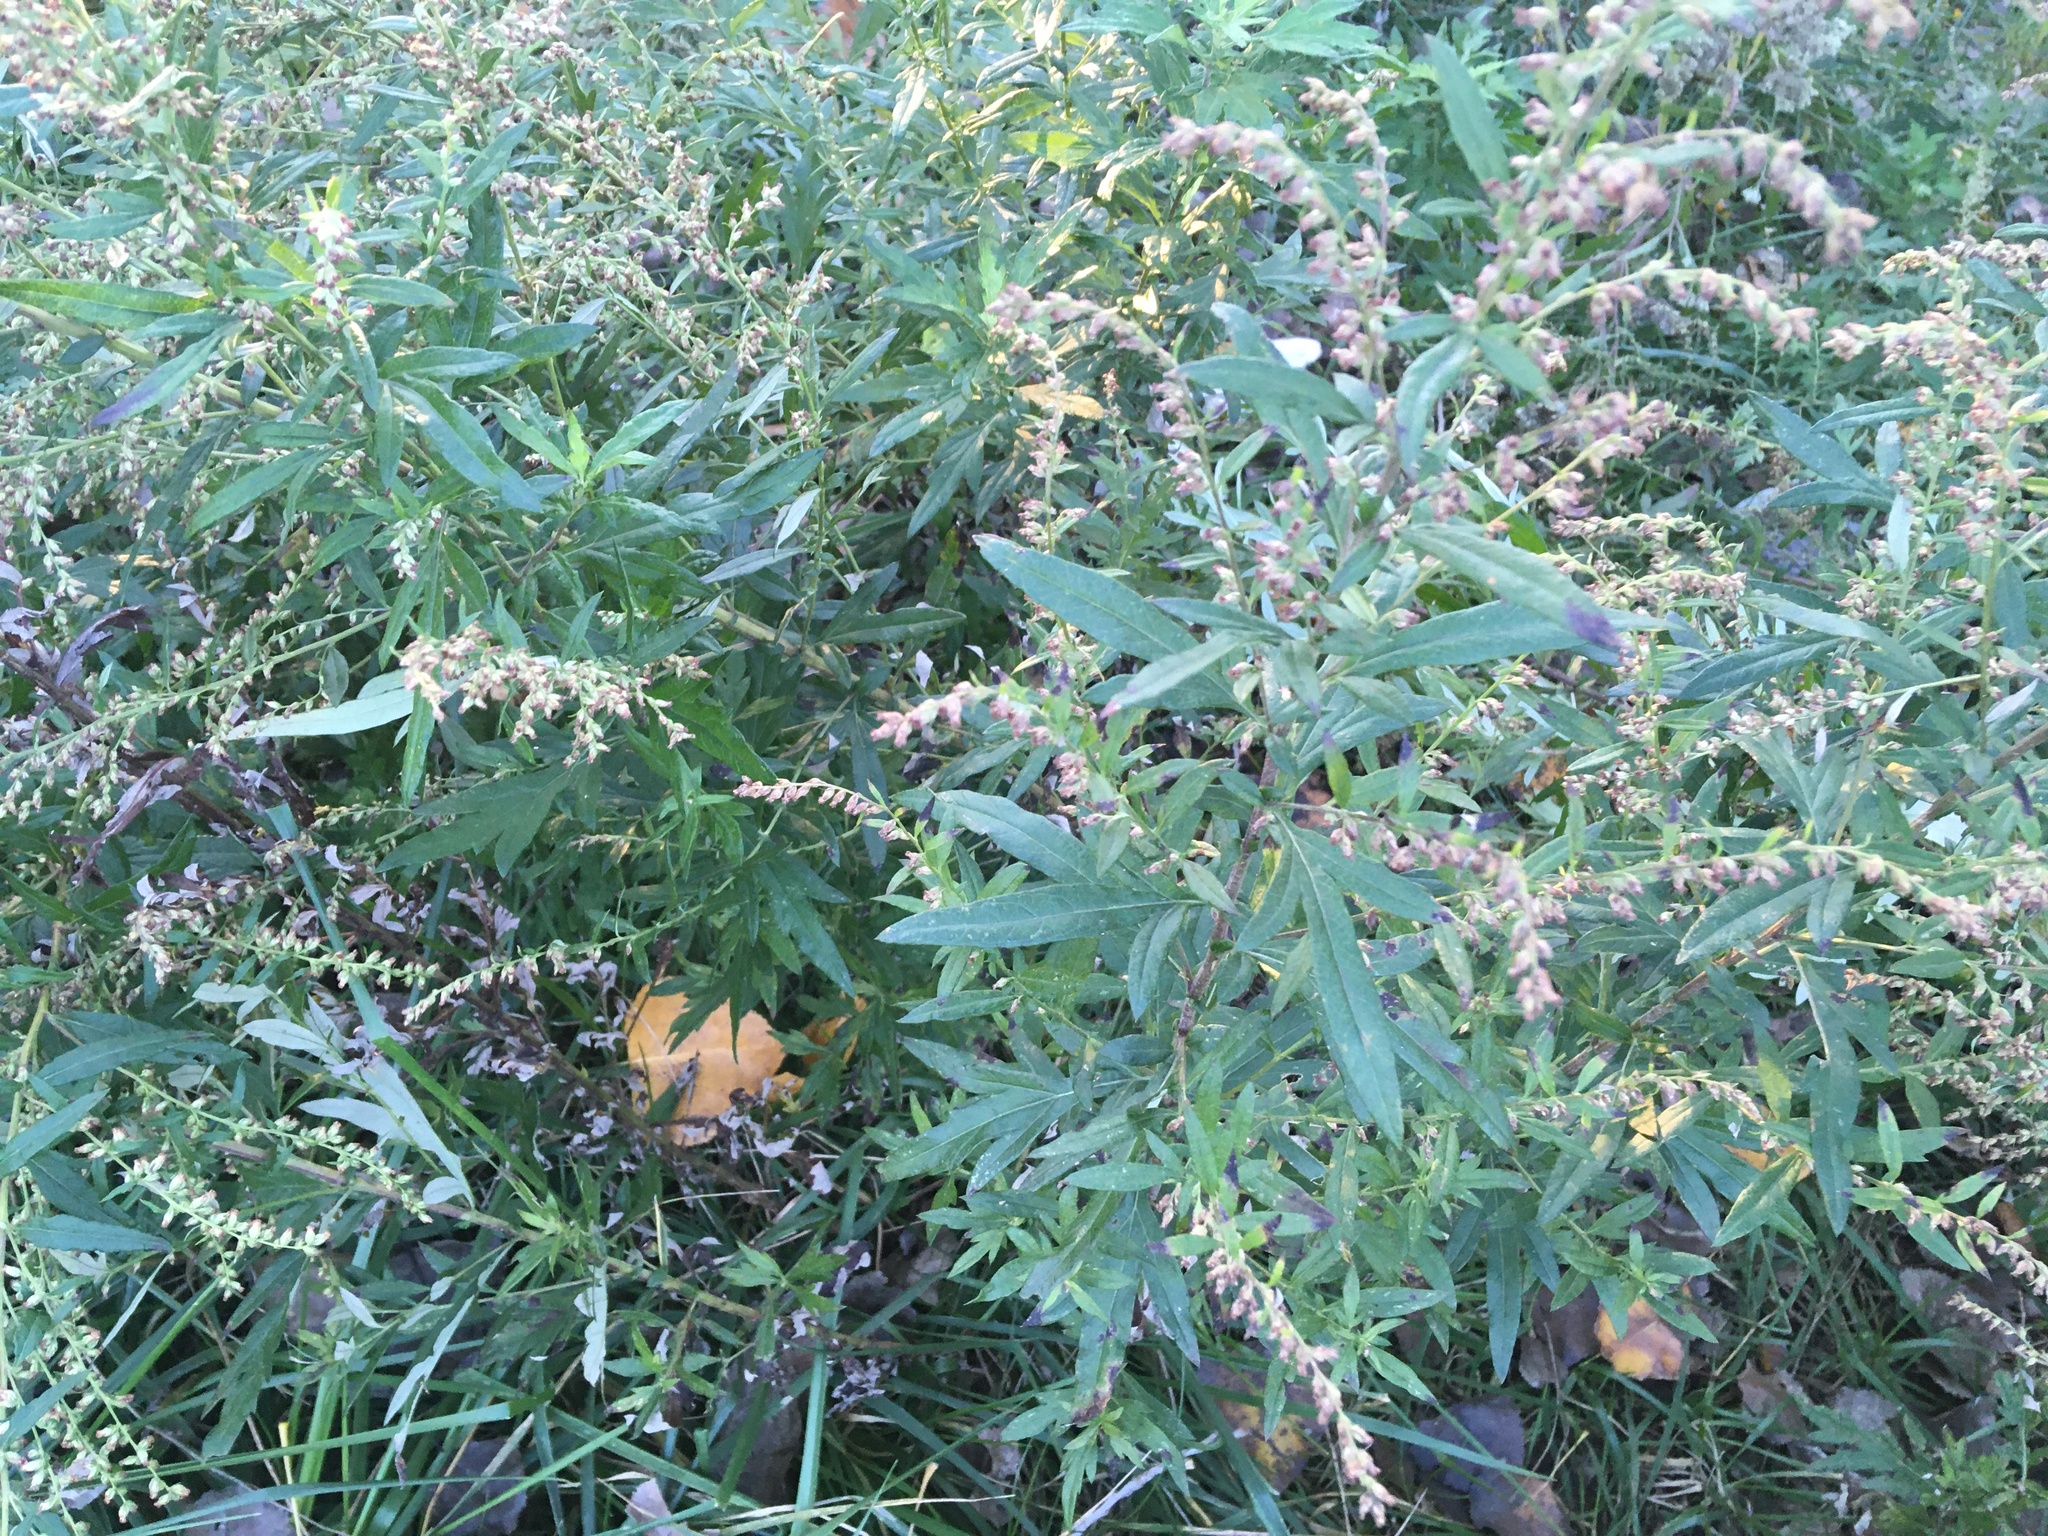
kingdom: Plantae
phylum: Tracheophyta
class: Magnoliopsida
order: Asterales
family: Asteraceae
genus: Artemisia
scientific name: Artemisia vulgaris
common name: Mugwort
